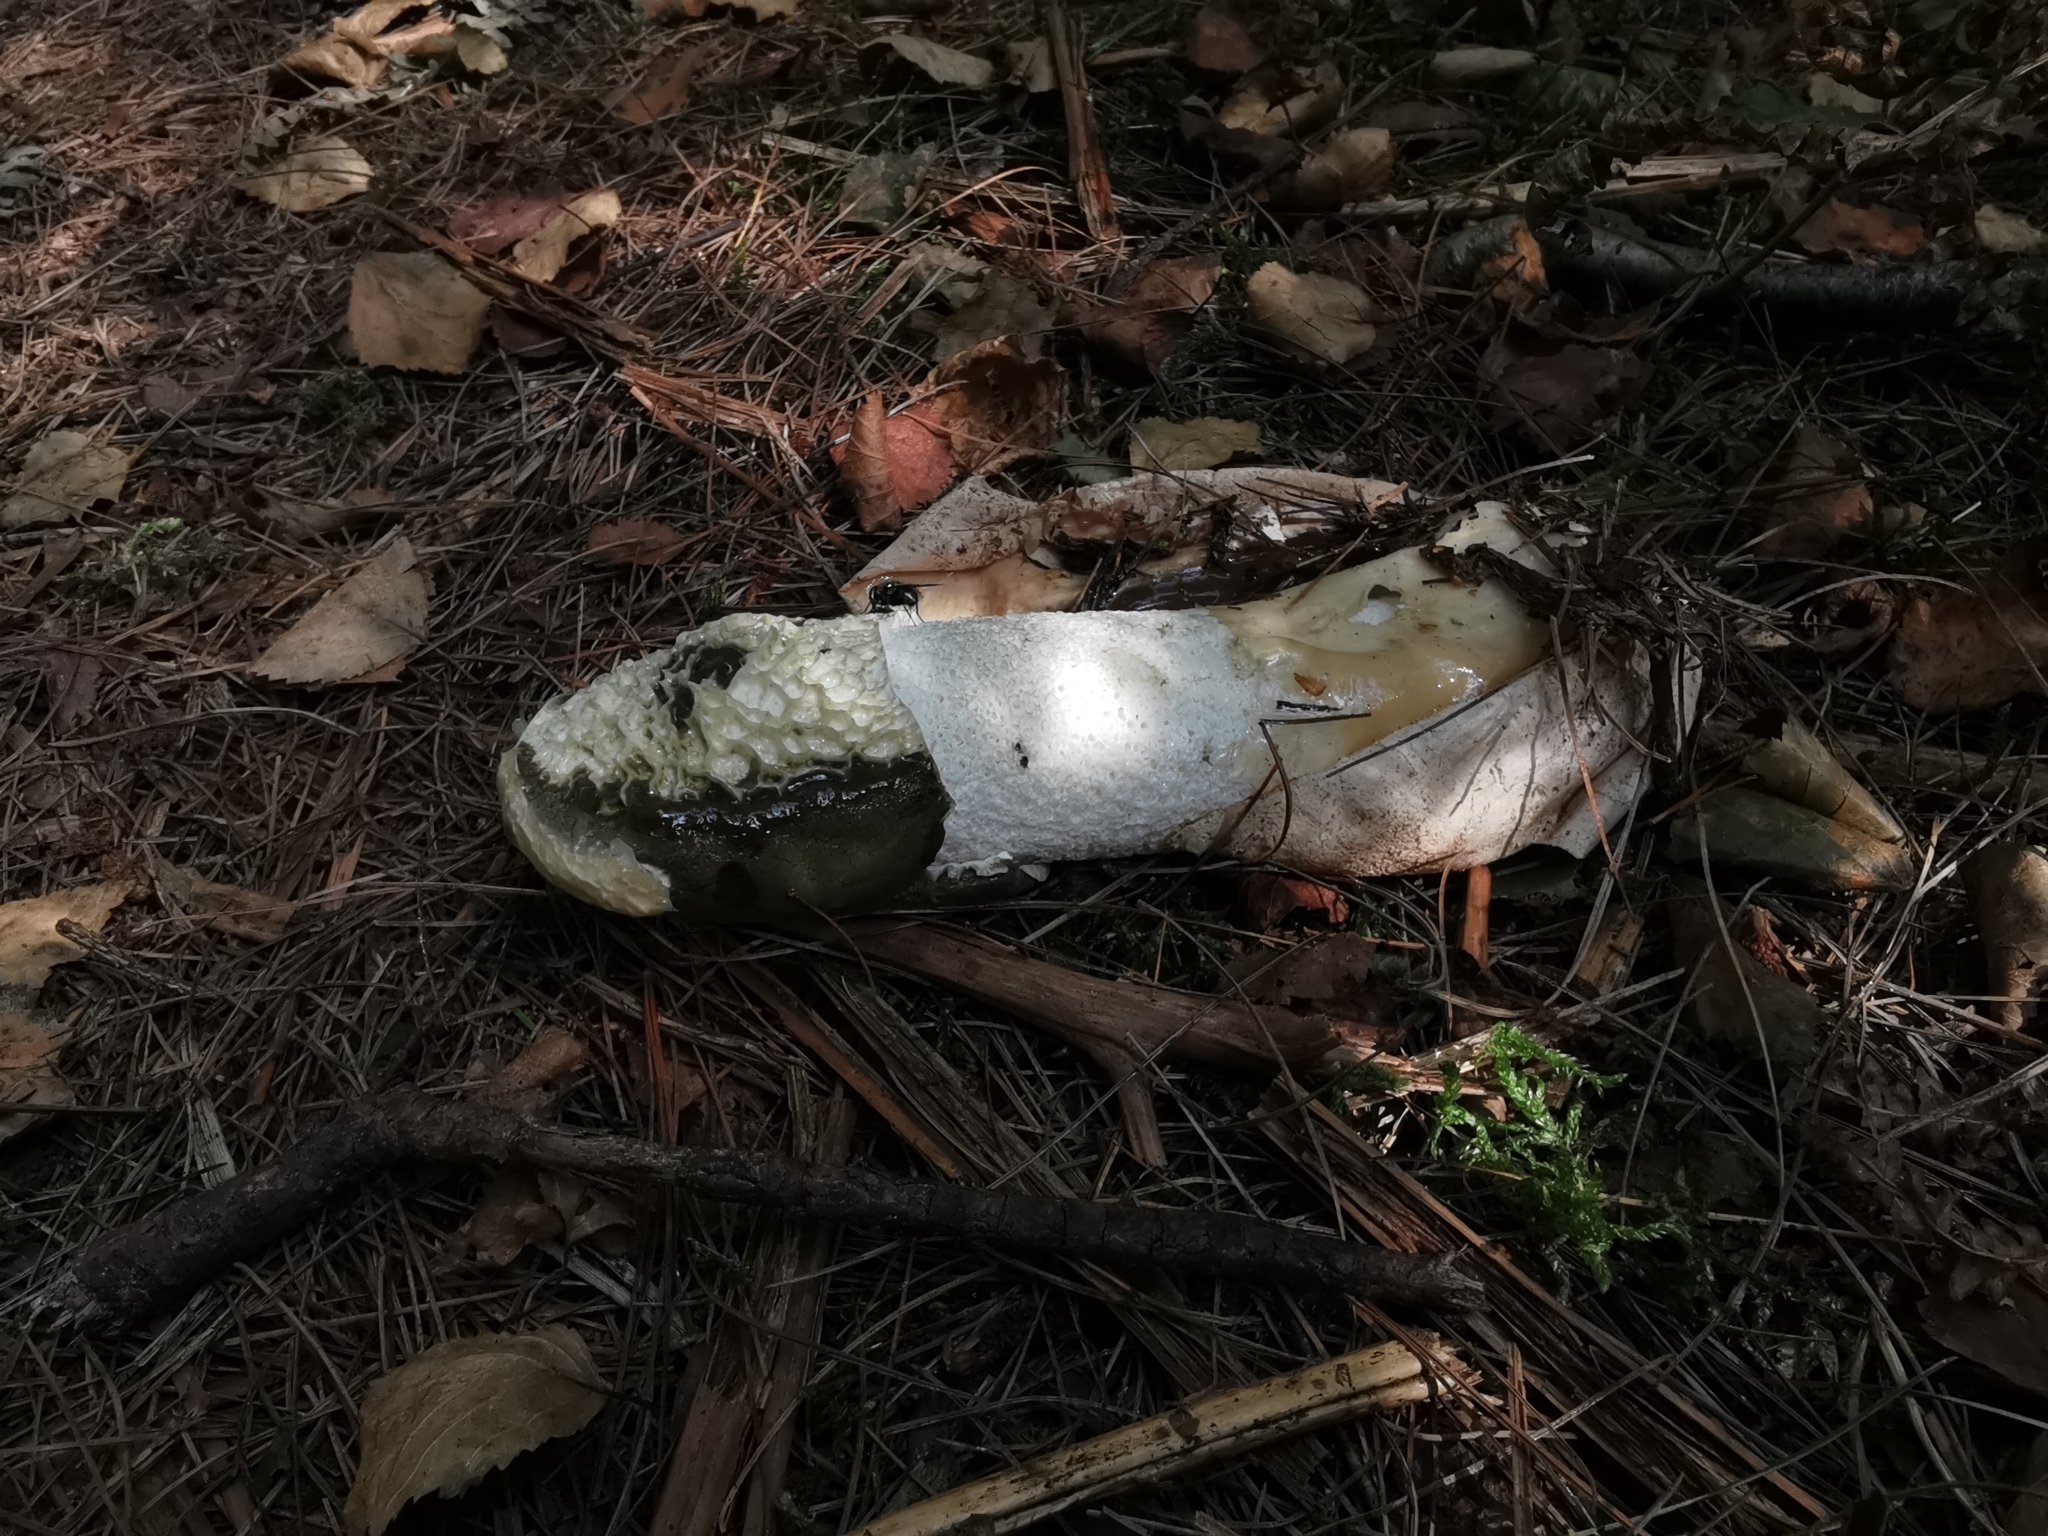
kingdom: Fungi
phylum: Basidiomycota
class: Agaricomycetes
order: Phallales
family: Phallaceae
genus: Phallus
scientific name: Phallus impudicus
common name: Common stinkhorn
